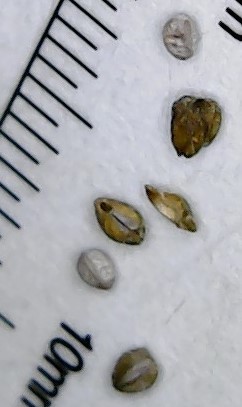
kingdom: Plantae
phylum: Tracheophyta
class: Magnoliopsida
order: Malpighiales
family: Euphorbiaceae
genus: Euphorbia
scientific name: Euphorbia maculata
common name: Spotted spurge
